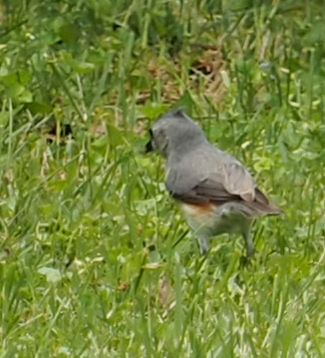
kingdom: Animalia
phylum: Chordata
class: Aves
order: Passeriformes
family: Paridae
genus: Baeolophus
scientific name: Baeolophus bicolor
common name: Tufted titmouse
